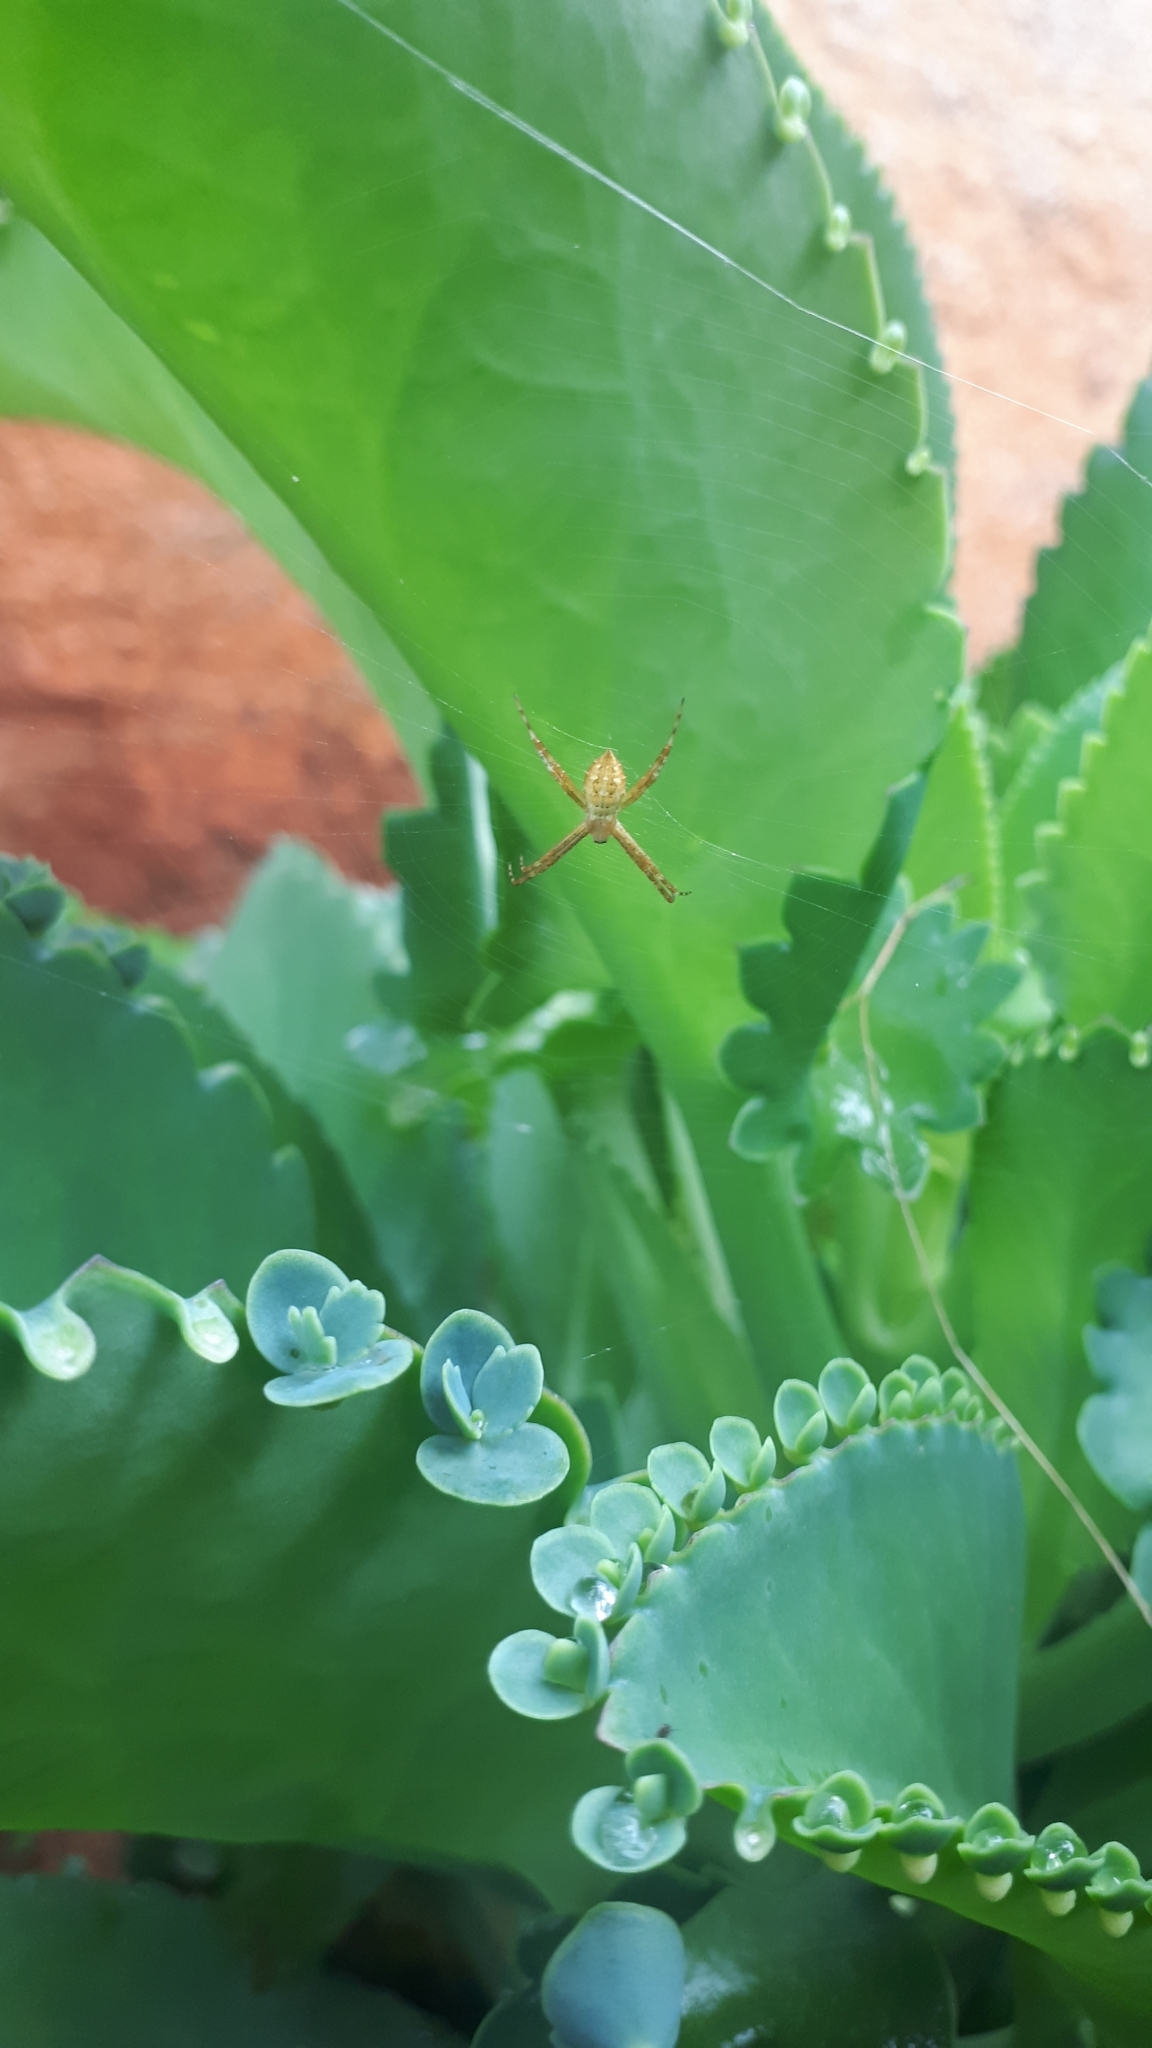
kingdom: Animalia
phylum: Arthropoda
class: Arachnida
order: Araneae
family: Araneidae
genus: Argiope
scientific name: Argiope argentata
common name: Orb weavers
